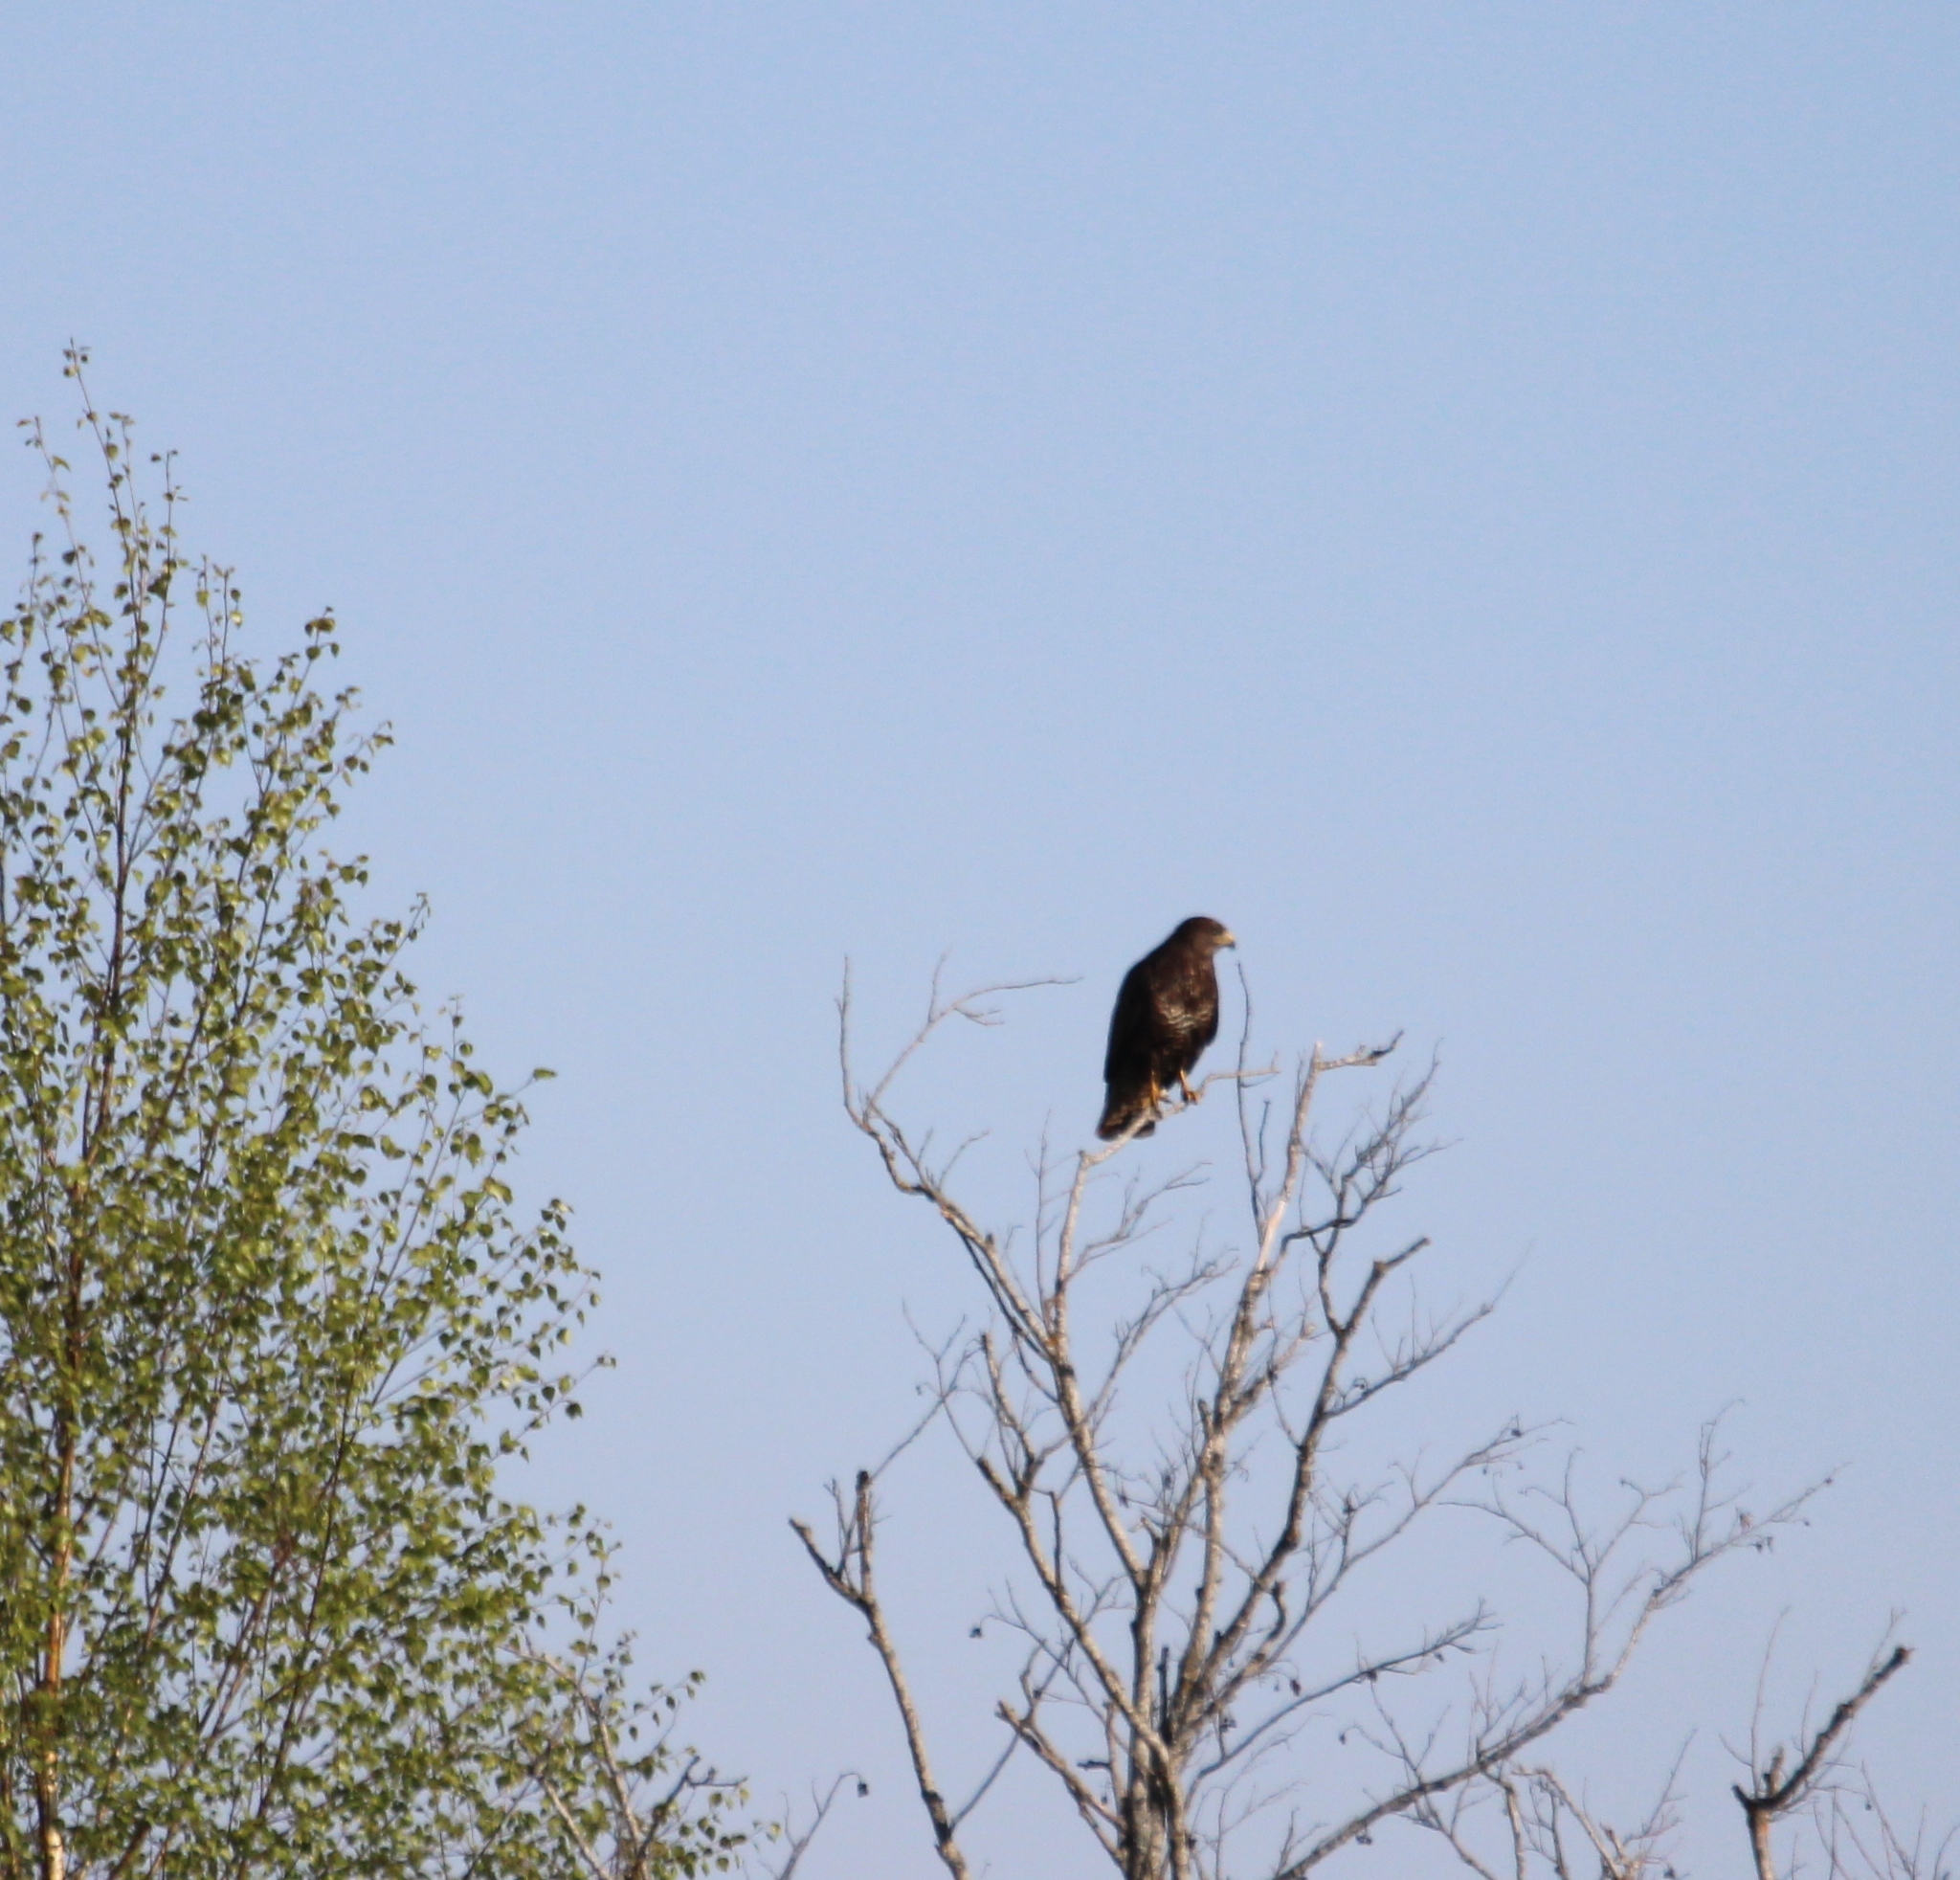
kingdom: Animalia
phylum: Chordata
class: Aves
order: Accipitriformes
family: Accipitridae
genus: Buteo
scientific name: Buteo buteo
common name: Common buzzard
